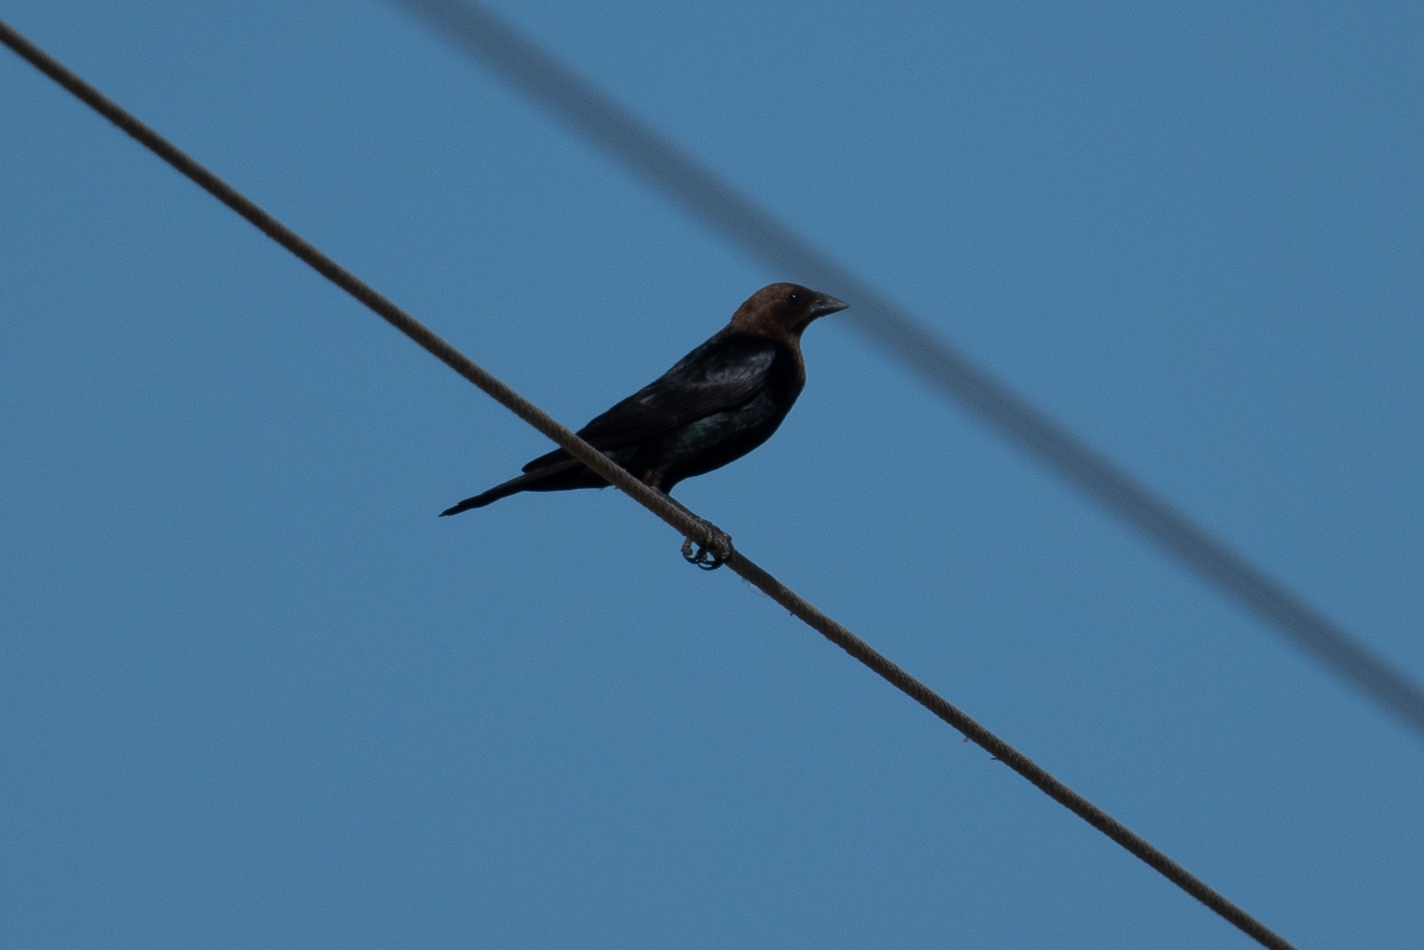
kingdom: Animalia
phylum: Chordata
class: Aves
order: Passeriformes
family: Icteridae
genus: Molothrus
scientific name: Molothrus ater
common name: Brown-headed cowbird
